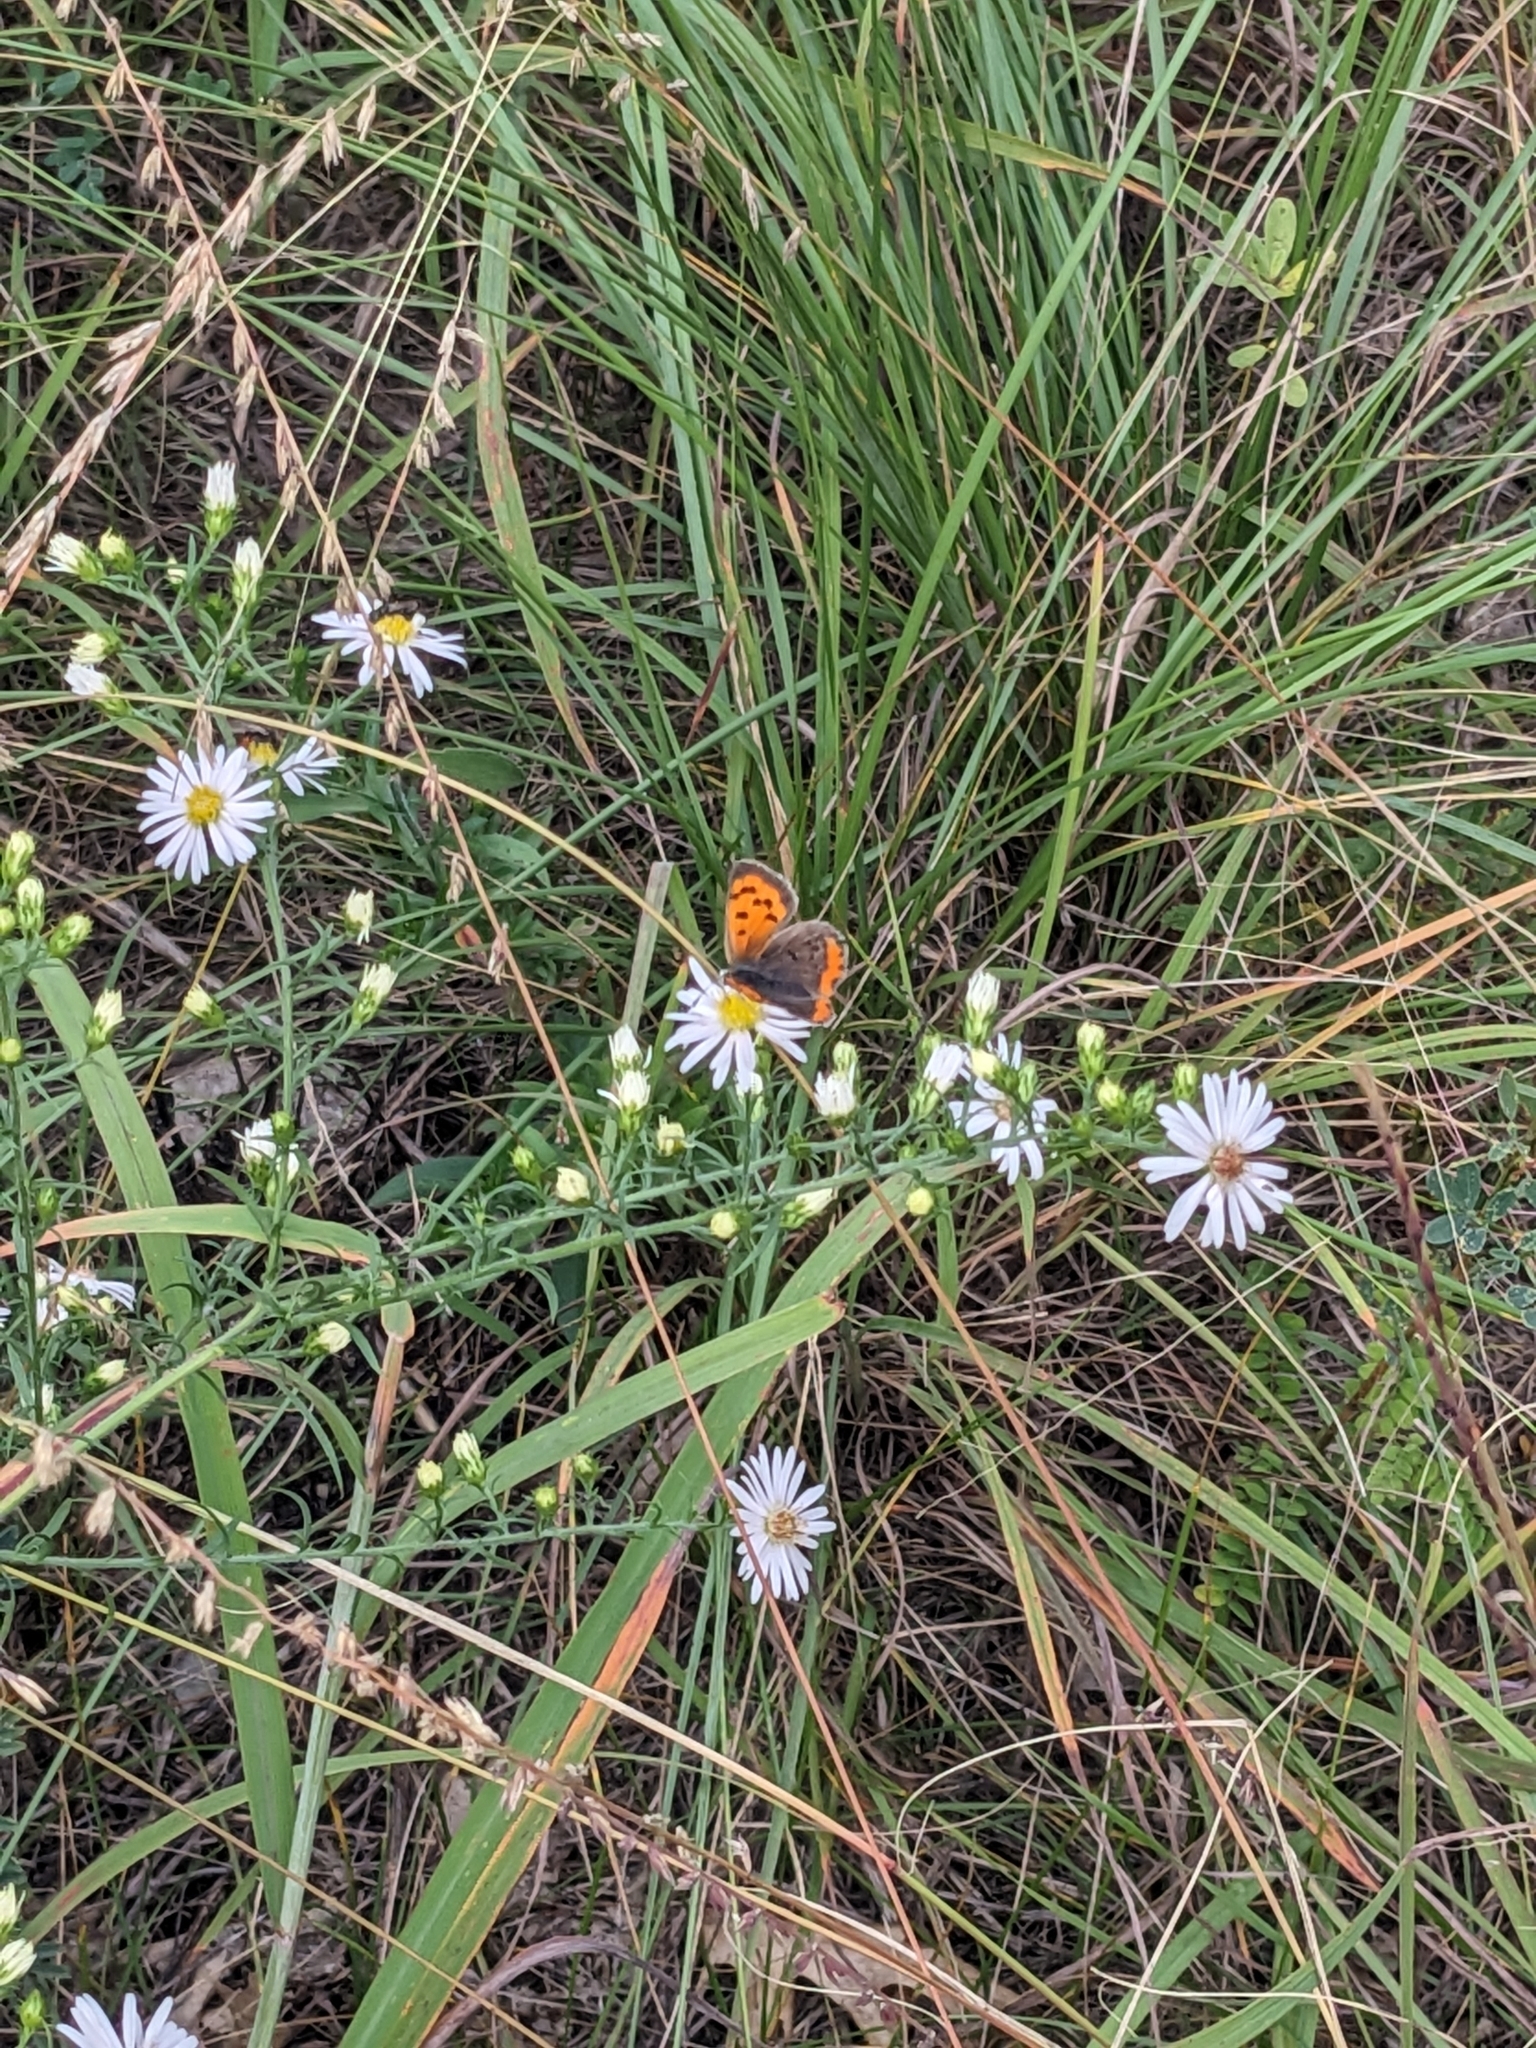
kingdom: Animalia
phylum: Arthropoda
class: Insecta
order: Lepidoptera
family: Lycaenidae
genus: Lycaena
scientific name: Lycaena hypophlaeas
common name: American copper
